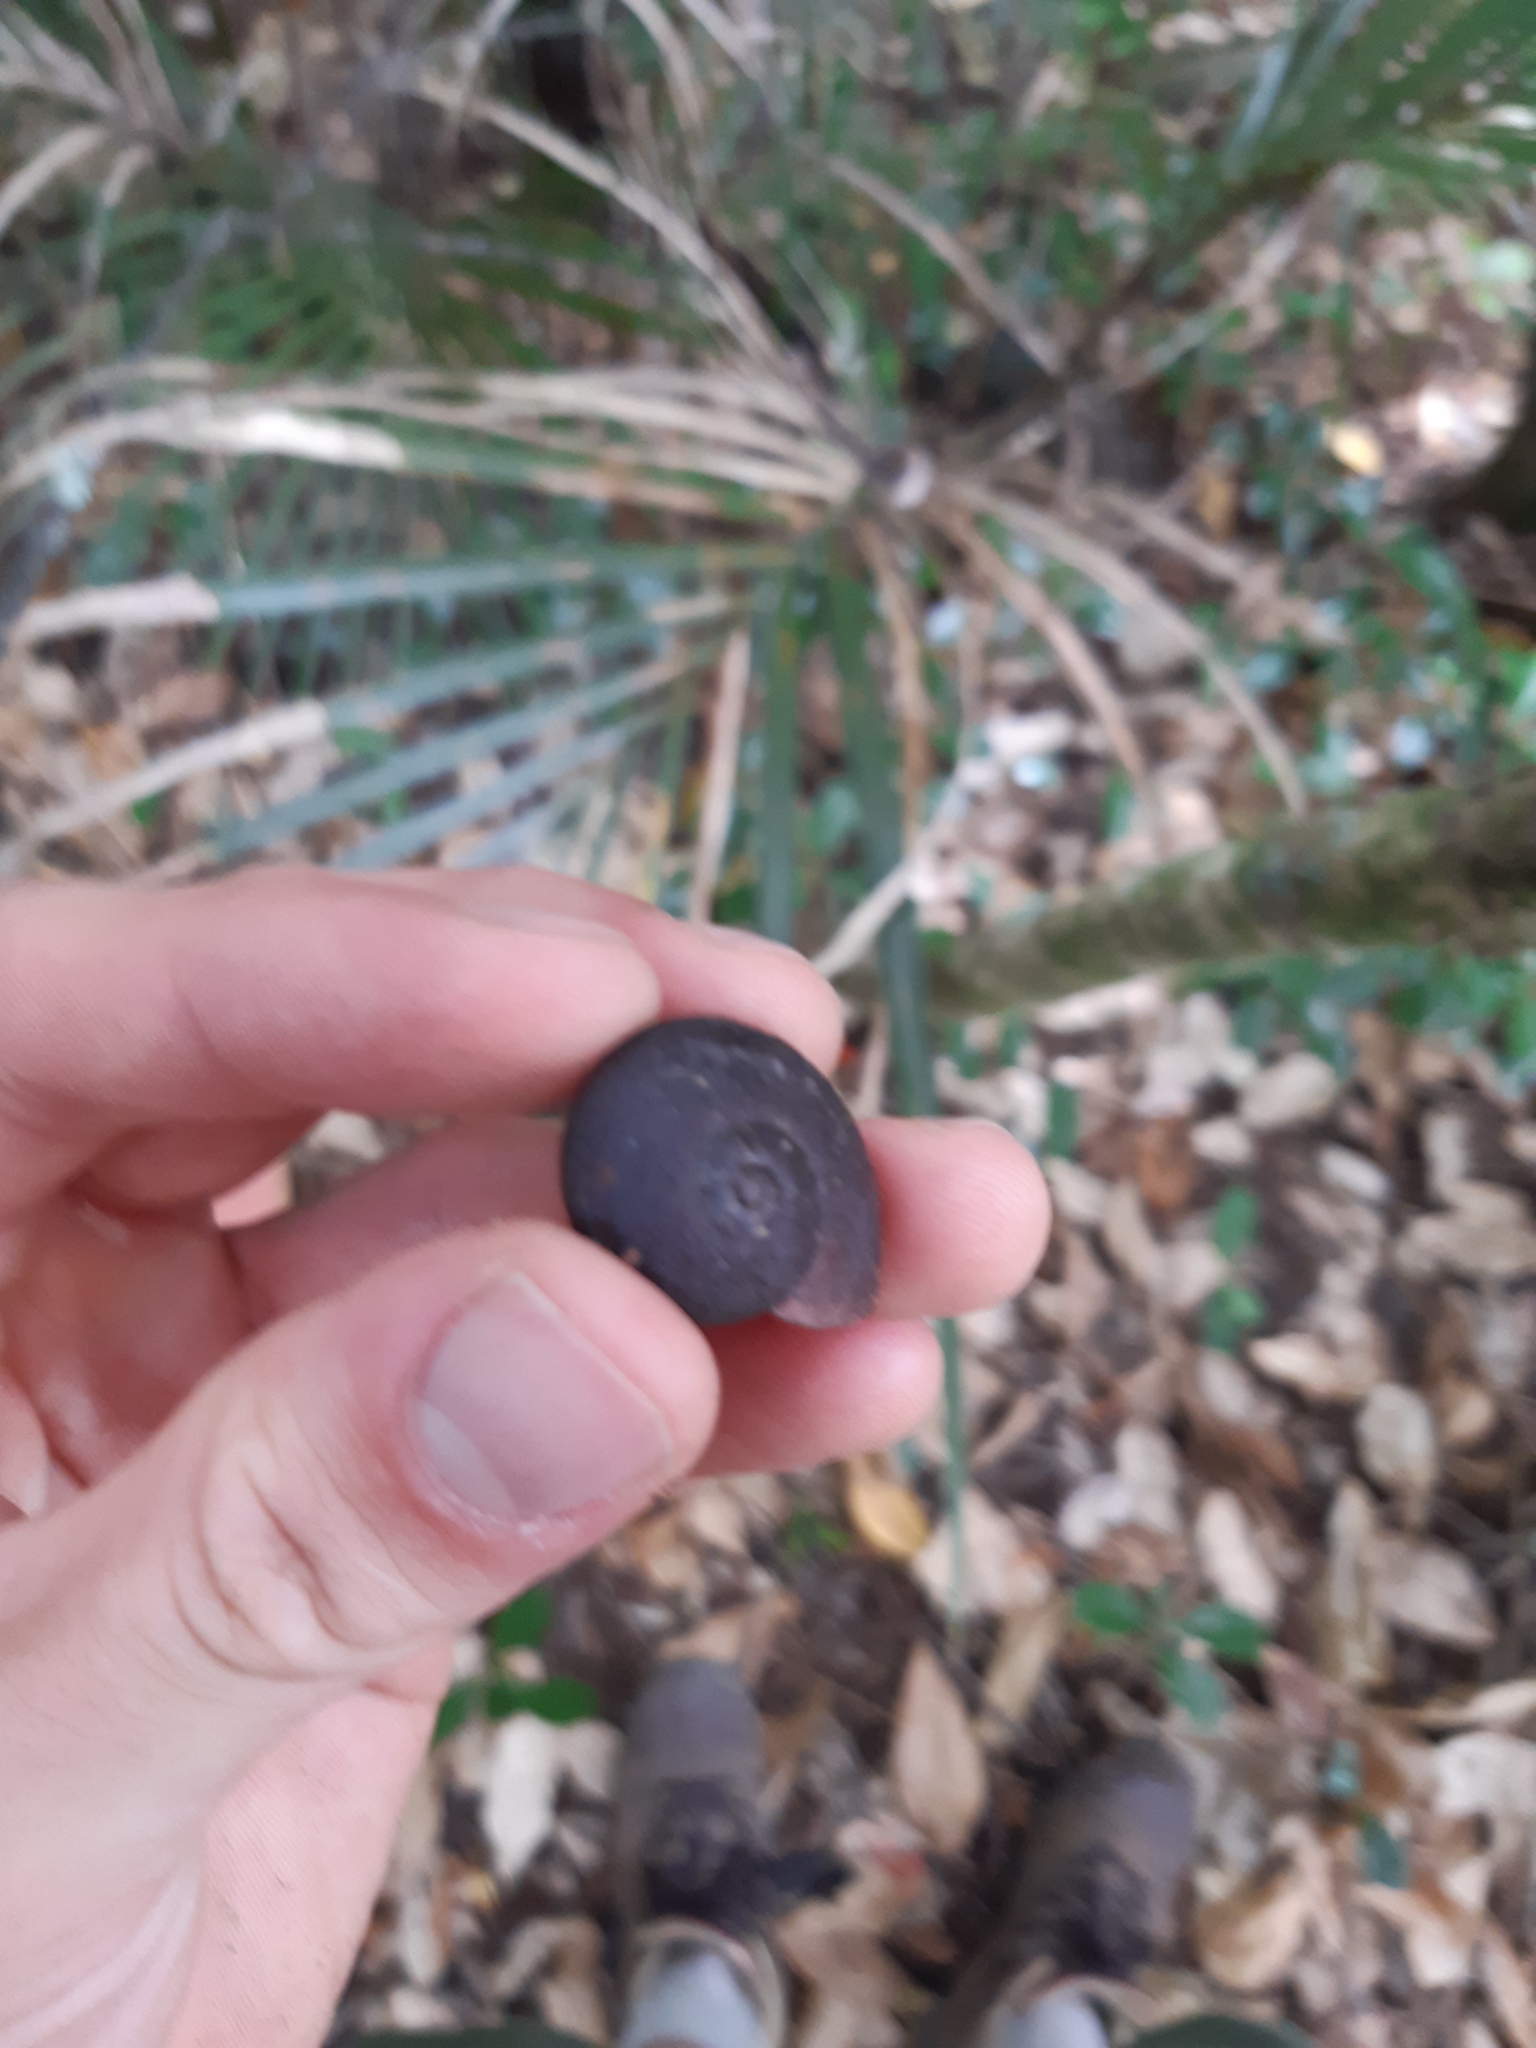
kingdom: Animalia
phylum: Mollusca
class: Gastropoda
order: Stylommatophora
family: Rhytididae
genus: Rhytida
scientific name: Rhytida greenwoodi
